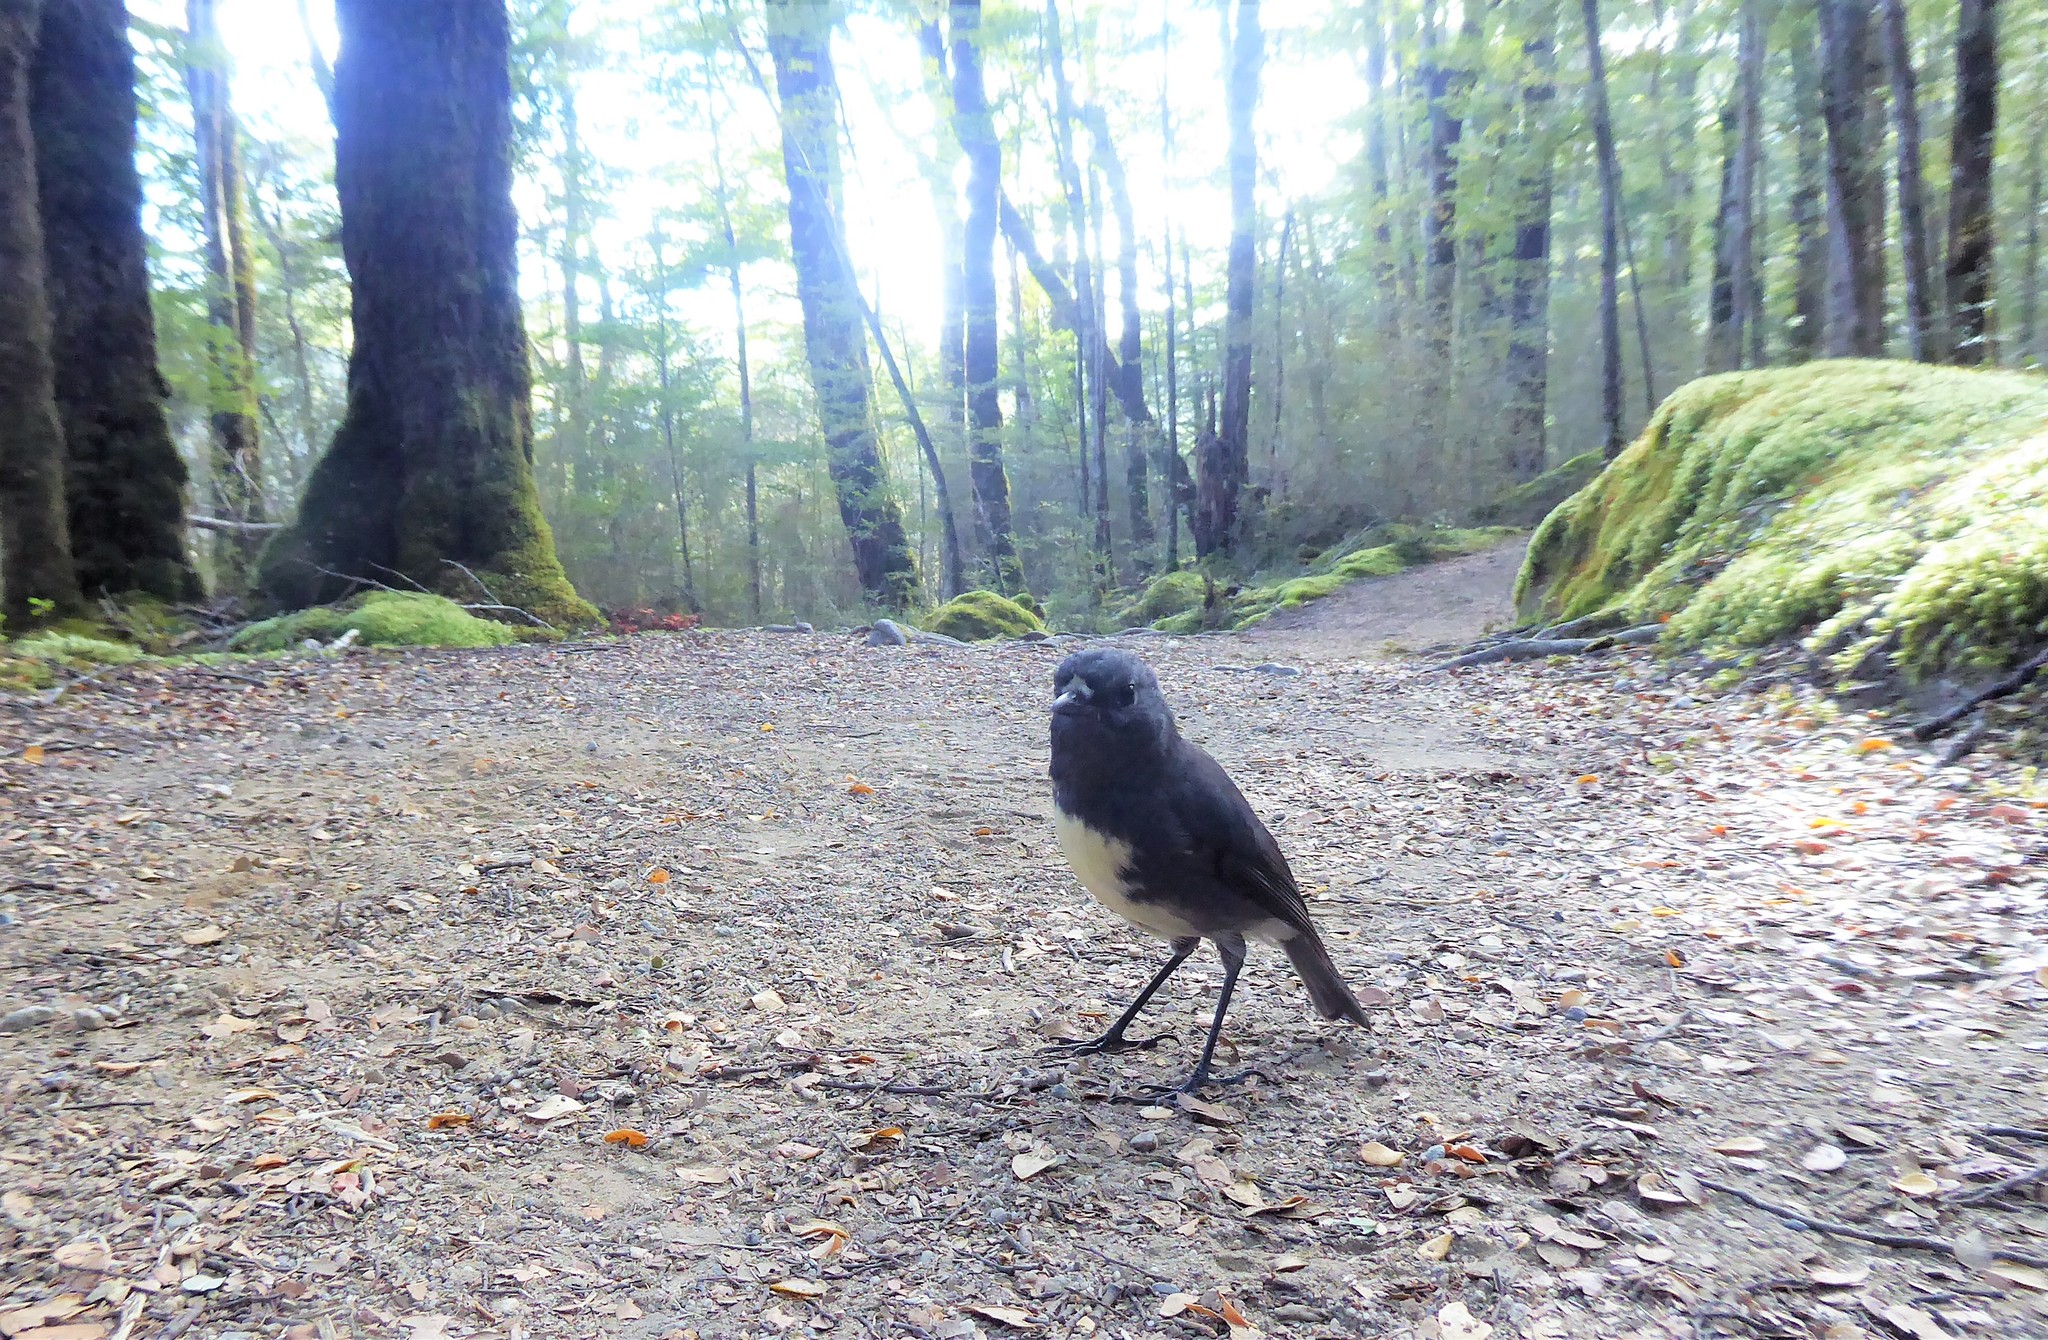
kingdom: Animalia
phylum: Chordata
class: Aves
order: Passeriformes
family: Petroicidae
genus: Petroica
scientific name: Petroica australis
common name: New zealand robin
